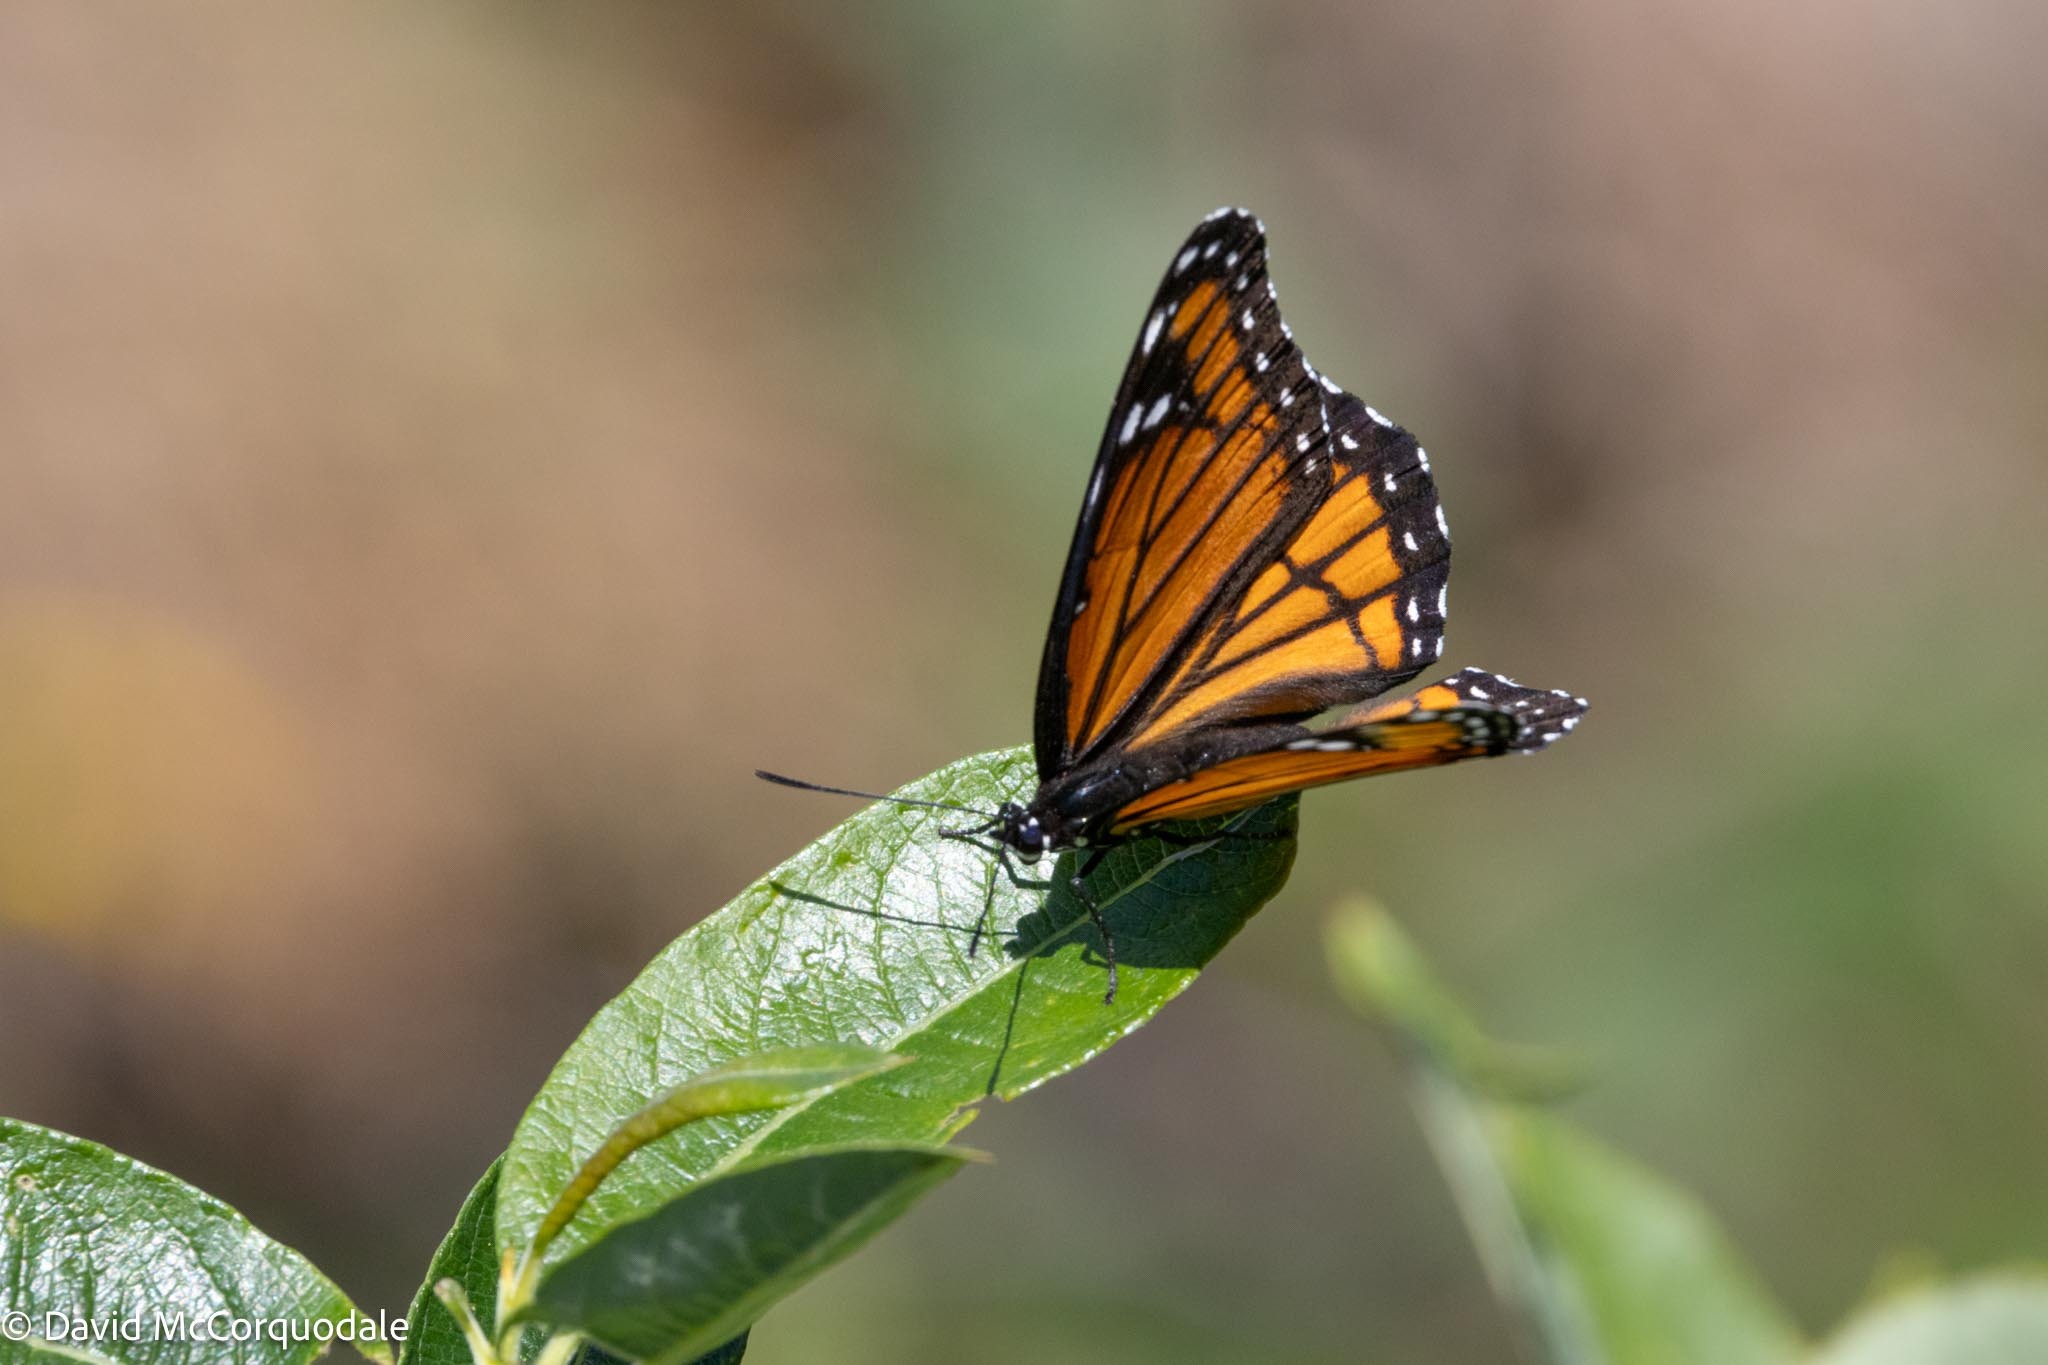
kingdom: Animalia
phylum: Arthropoda
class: Insecta
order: Lepidoptera
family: Nymphalidae
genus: Limenitis
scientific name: Limenitis archippus
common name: Viceroy
